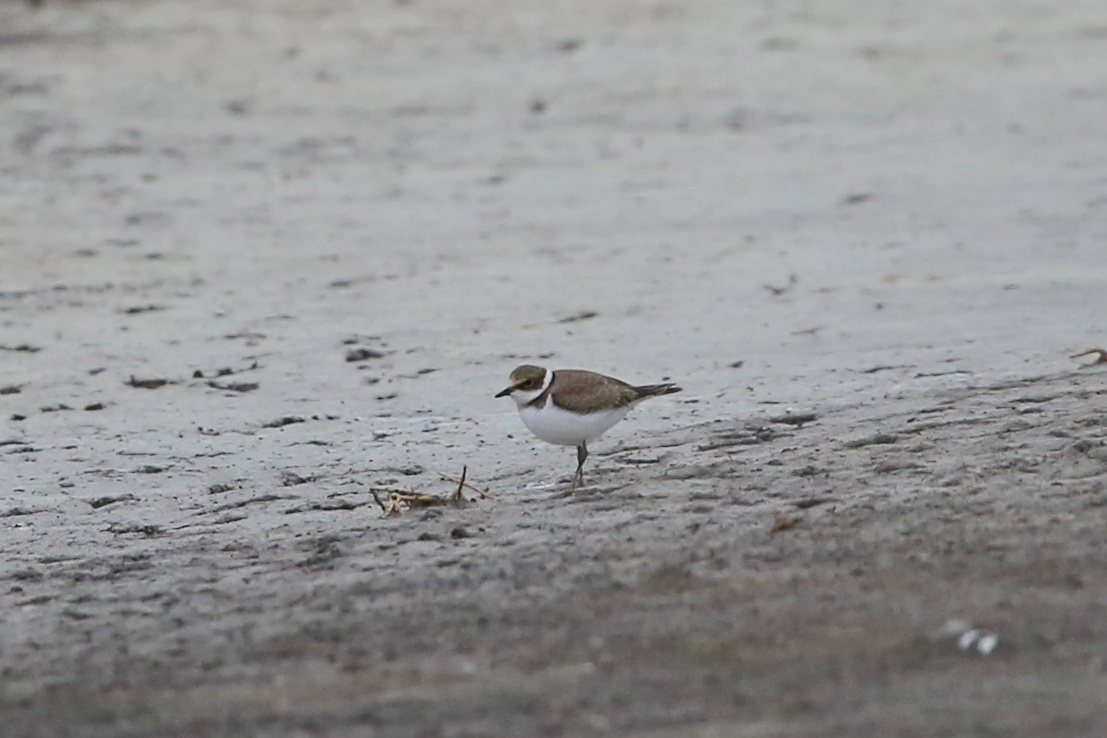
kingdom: Animalia
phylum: Chordata
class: Aves
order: Charadriiformes
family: Charadriidae
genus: Charadrius
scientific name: Charadrius dubius
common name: Little ringed plover
